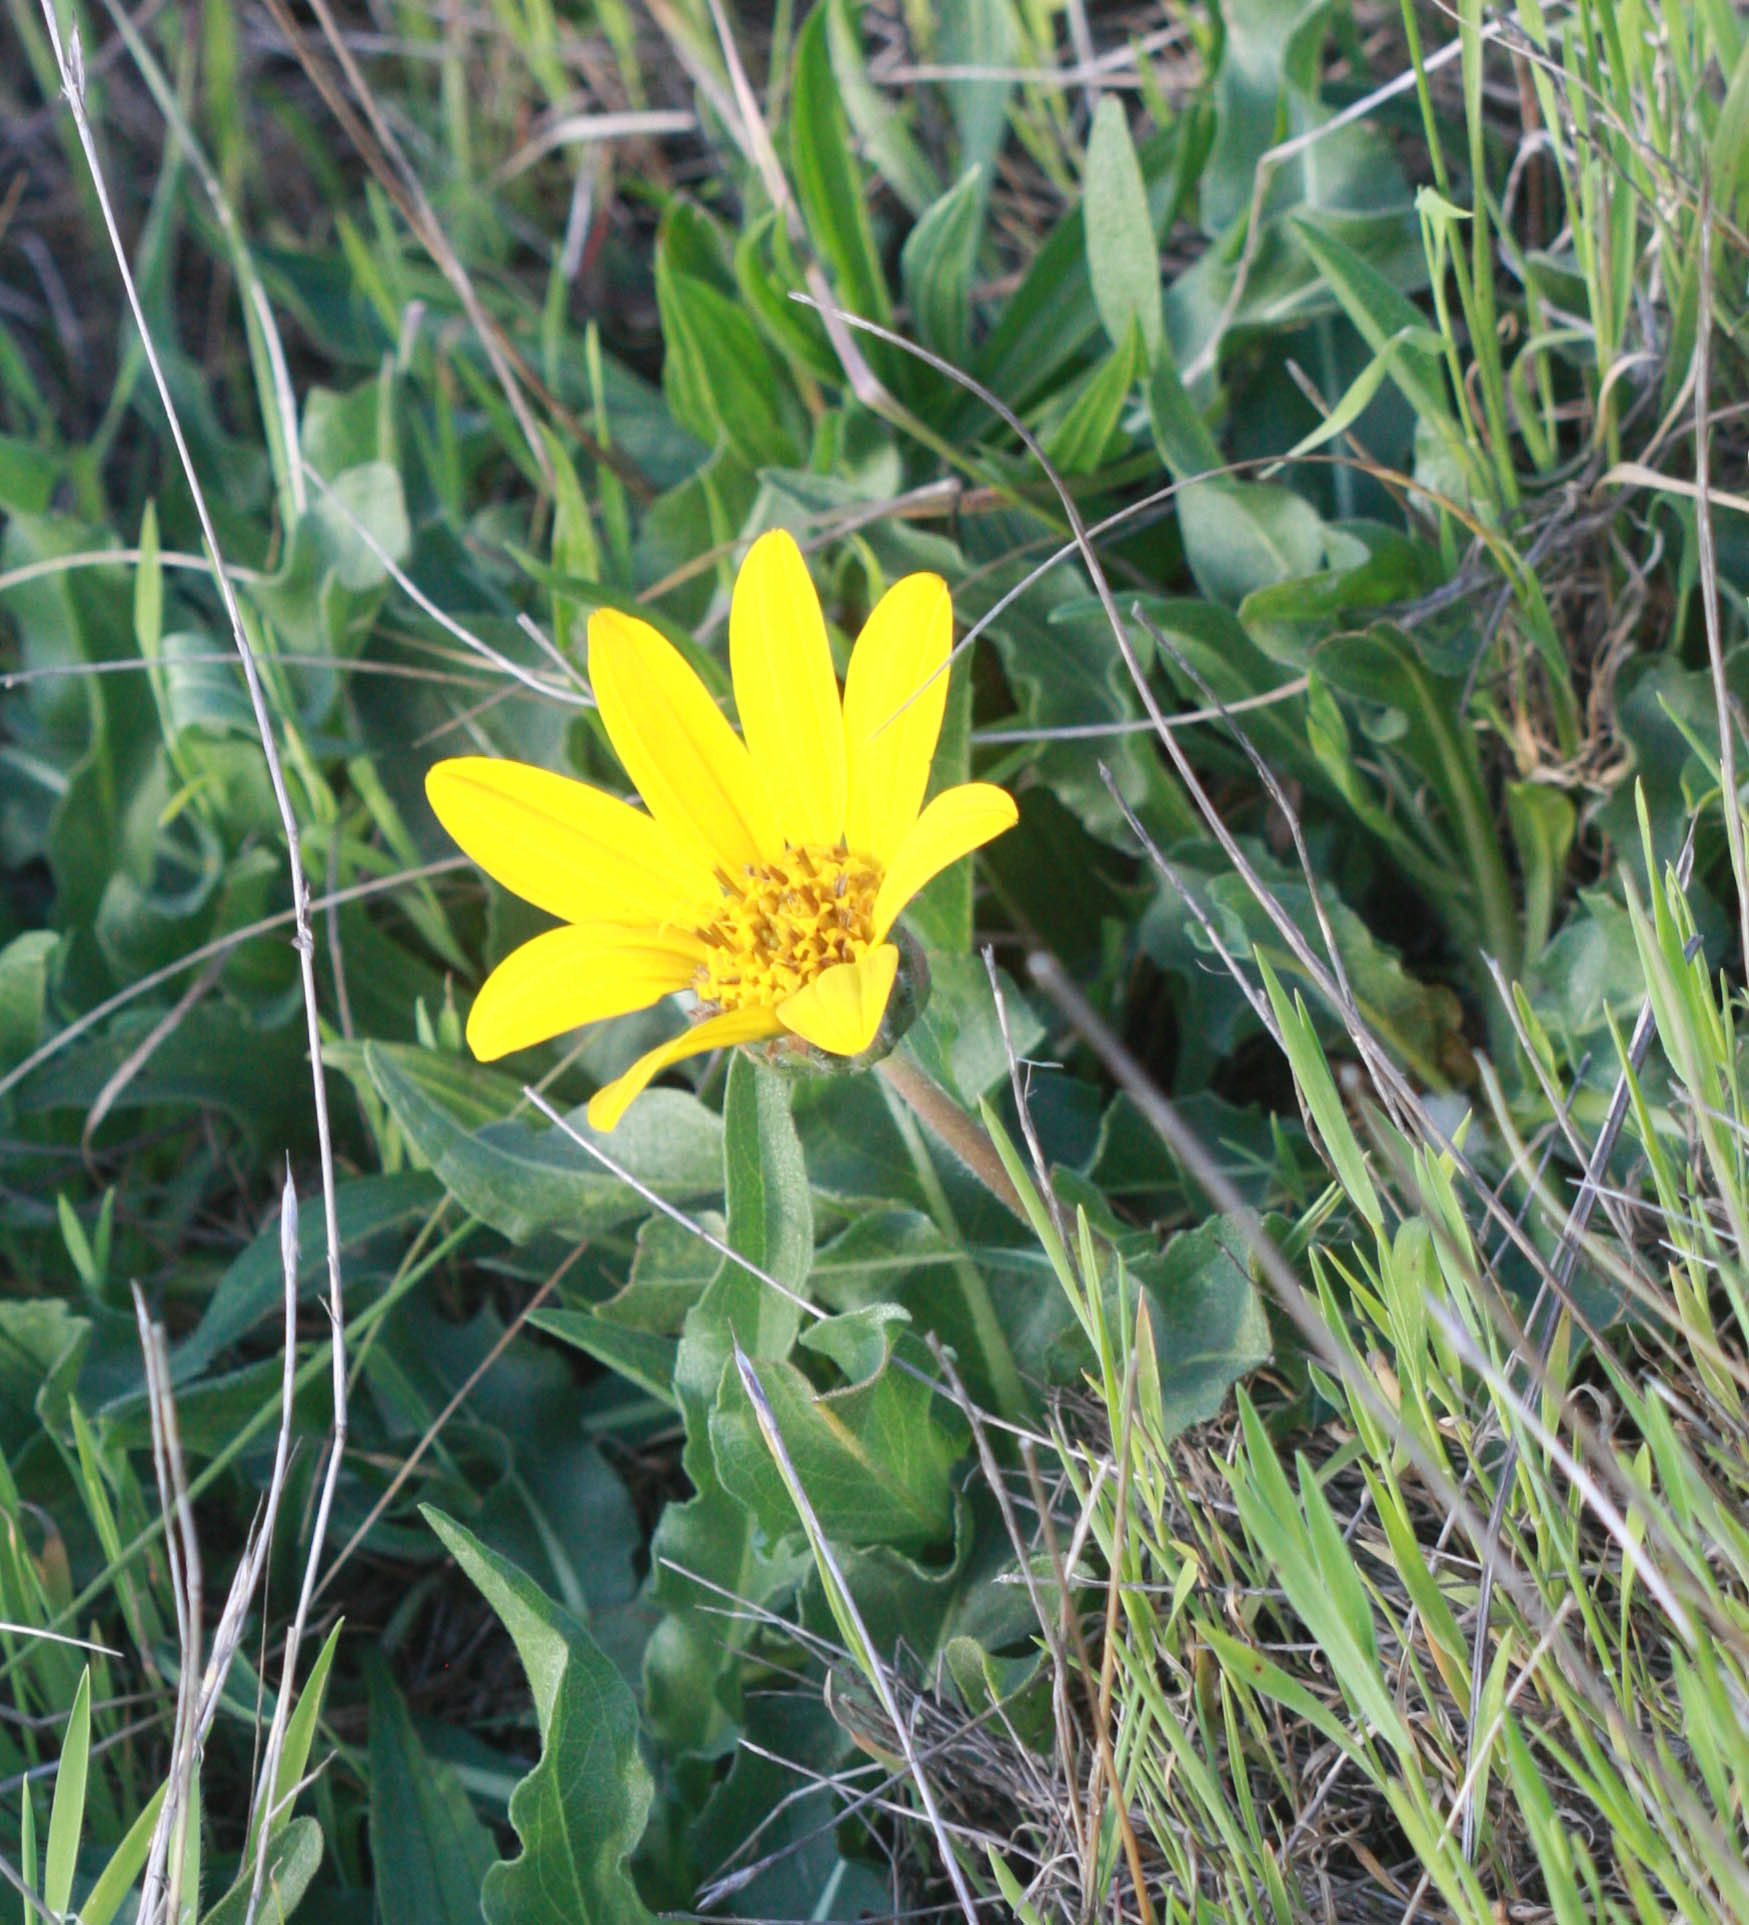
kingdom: Plantae
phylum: Tracheophyta
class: Magnoliopsida
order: Asterales
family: Asteraceae
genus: Wyethia
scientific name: Wyethia angustifolia
